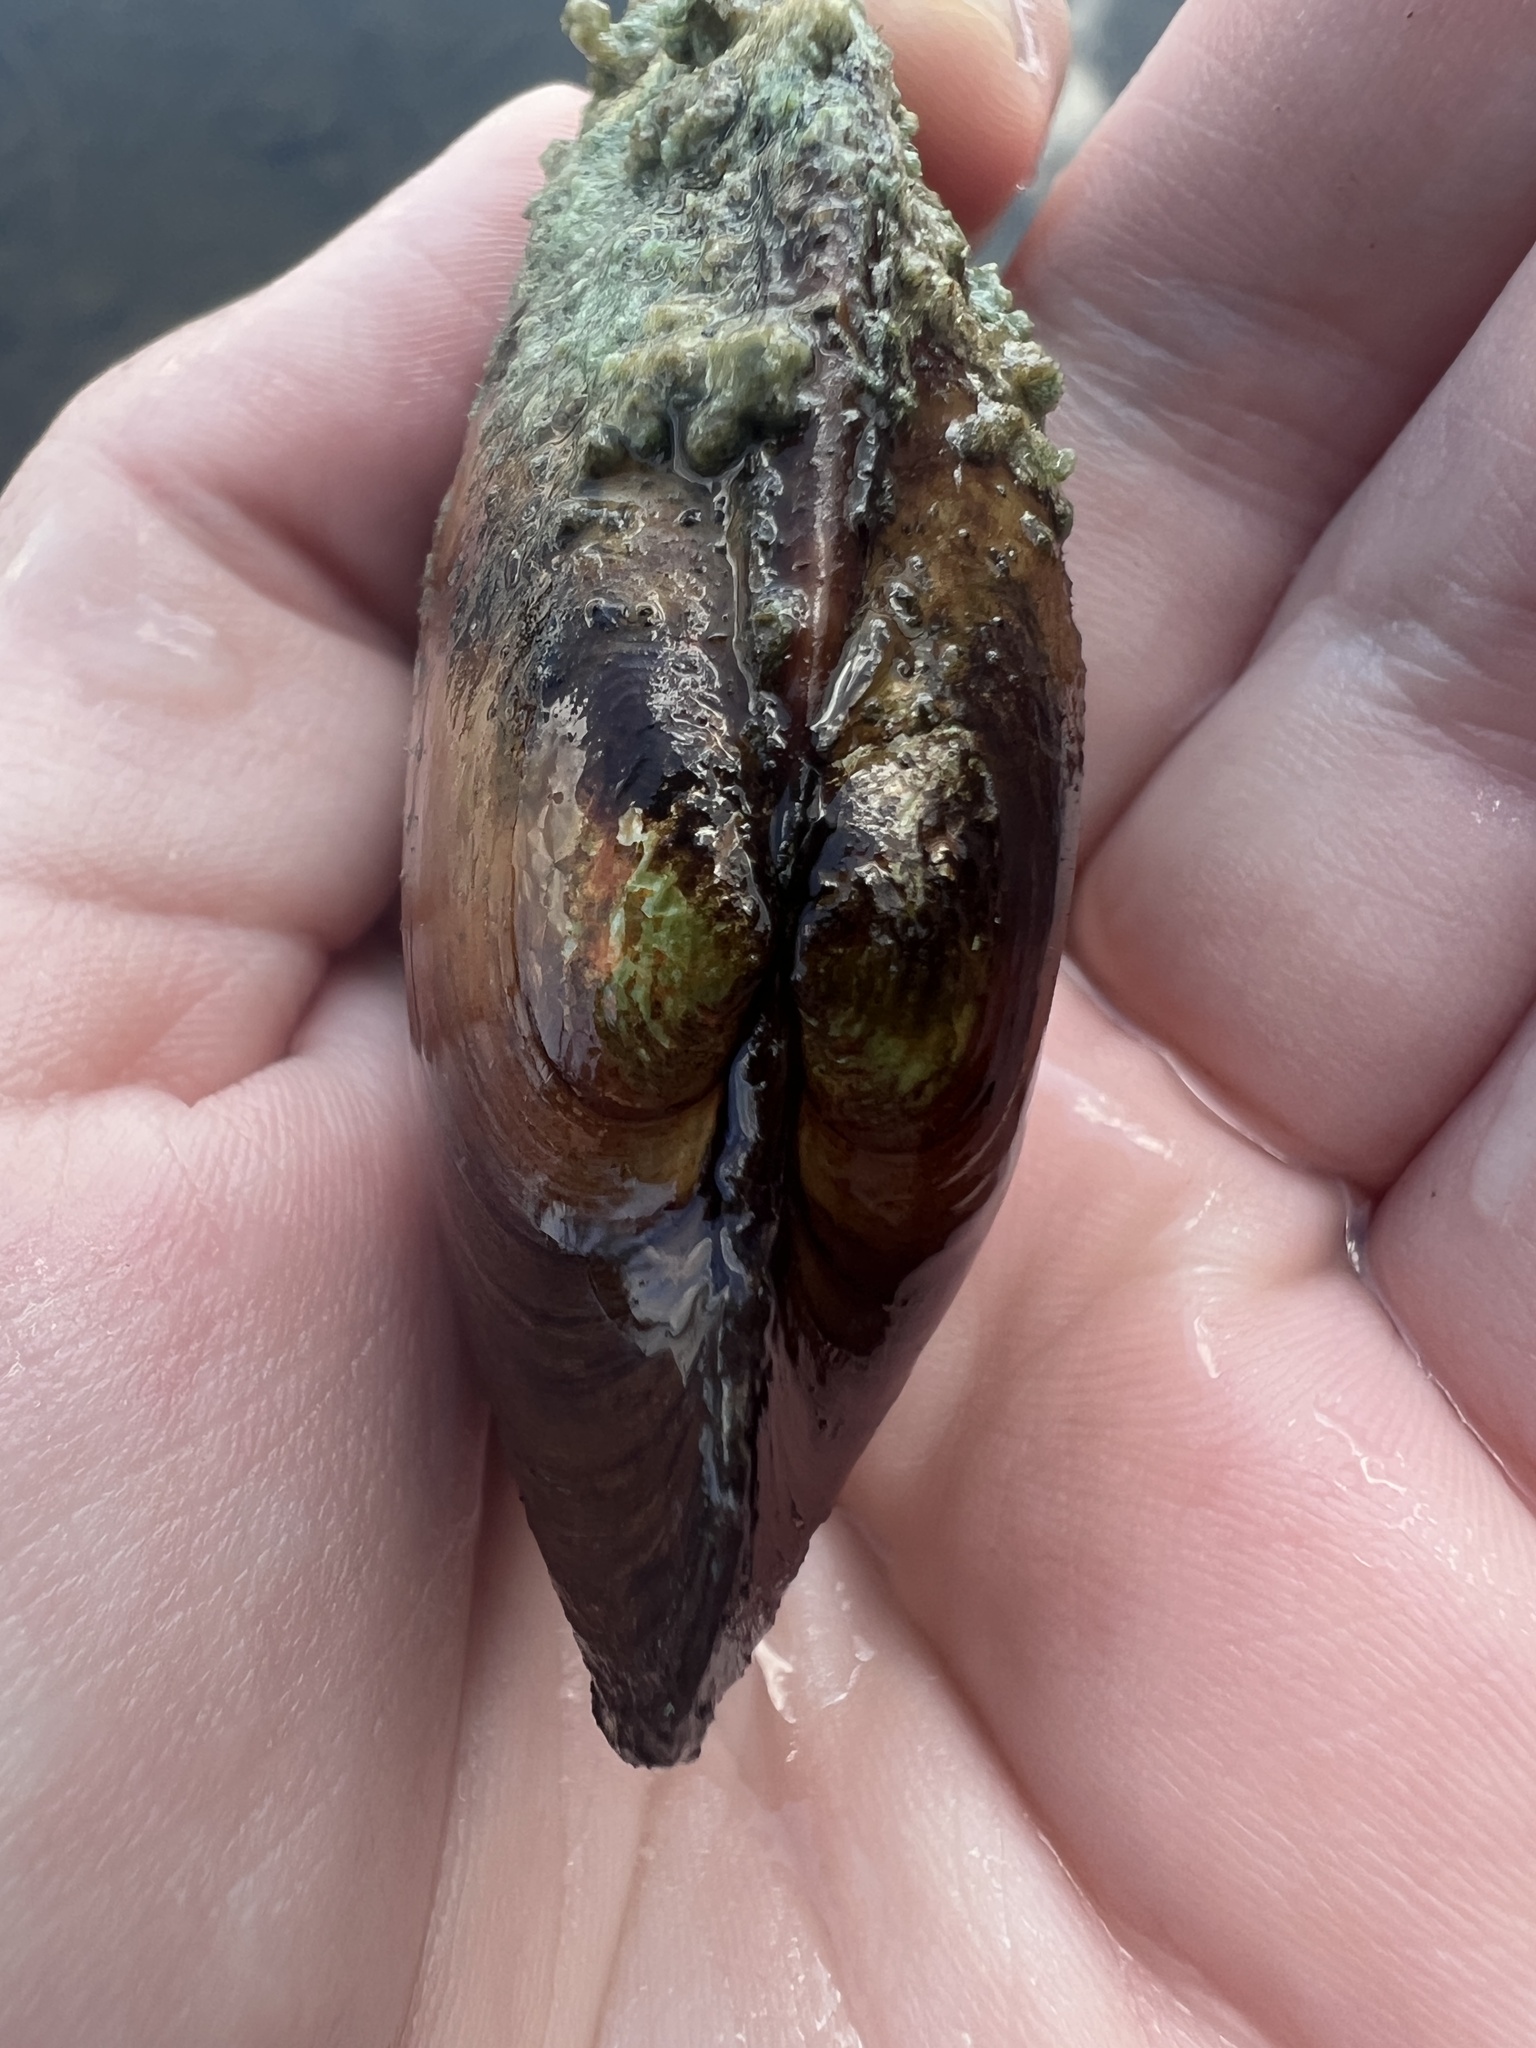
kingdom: Animalia
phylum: Mollusca
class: Bivalvia
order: Unionida
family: Unionidae
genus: Lampsilis
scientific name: Lampsilis siliquoidea
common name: Fatmucket
